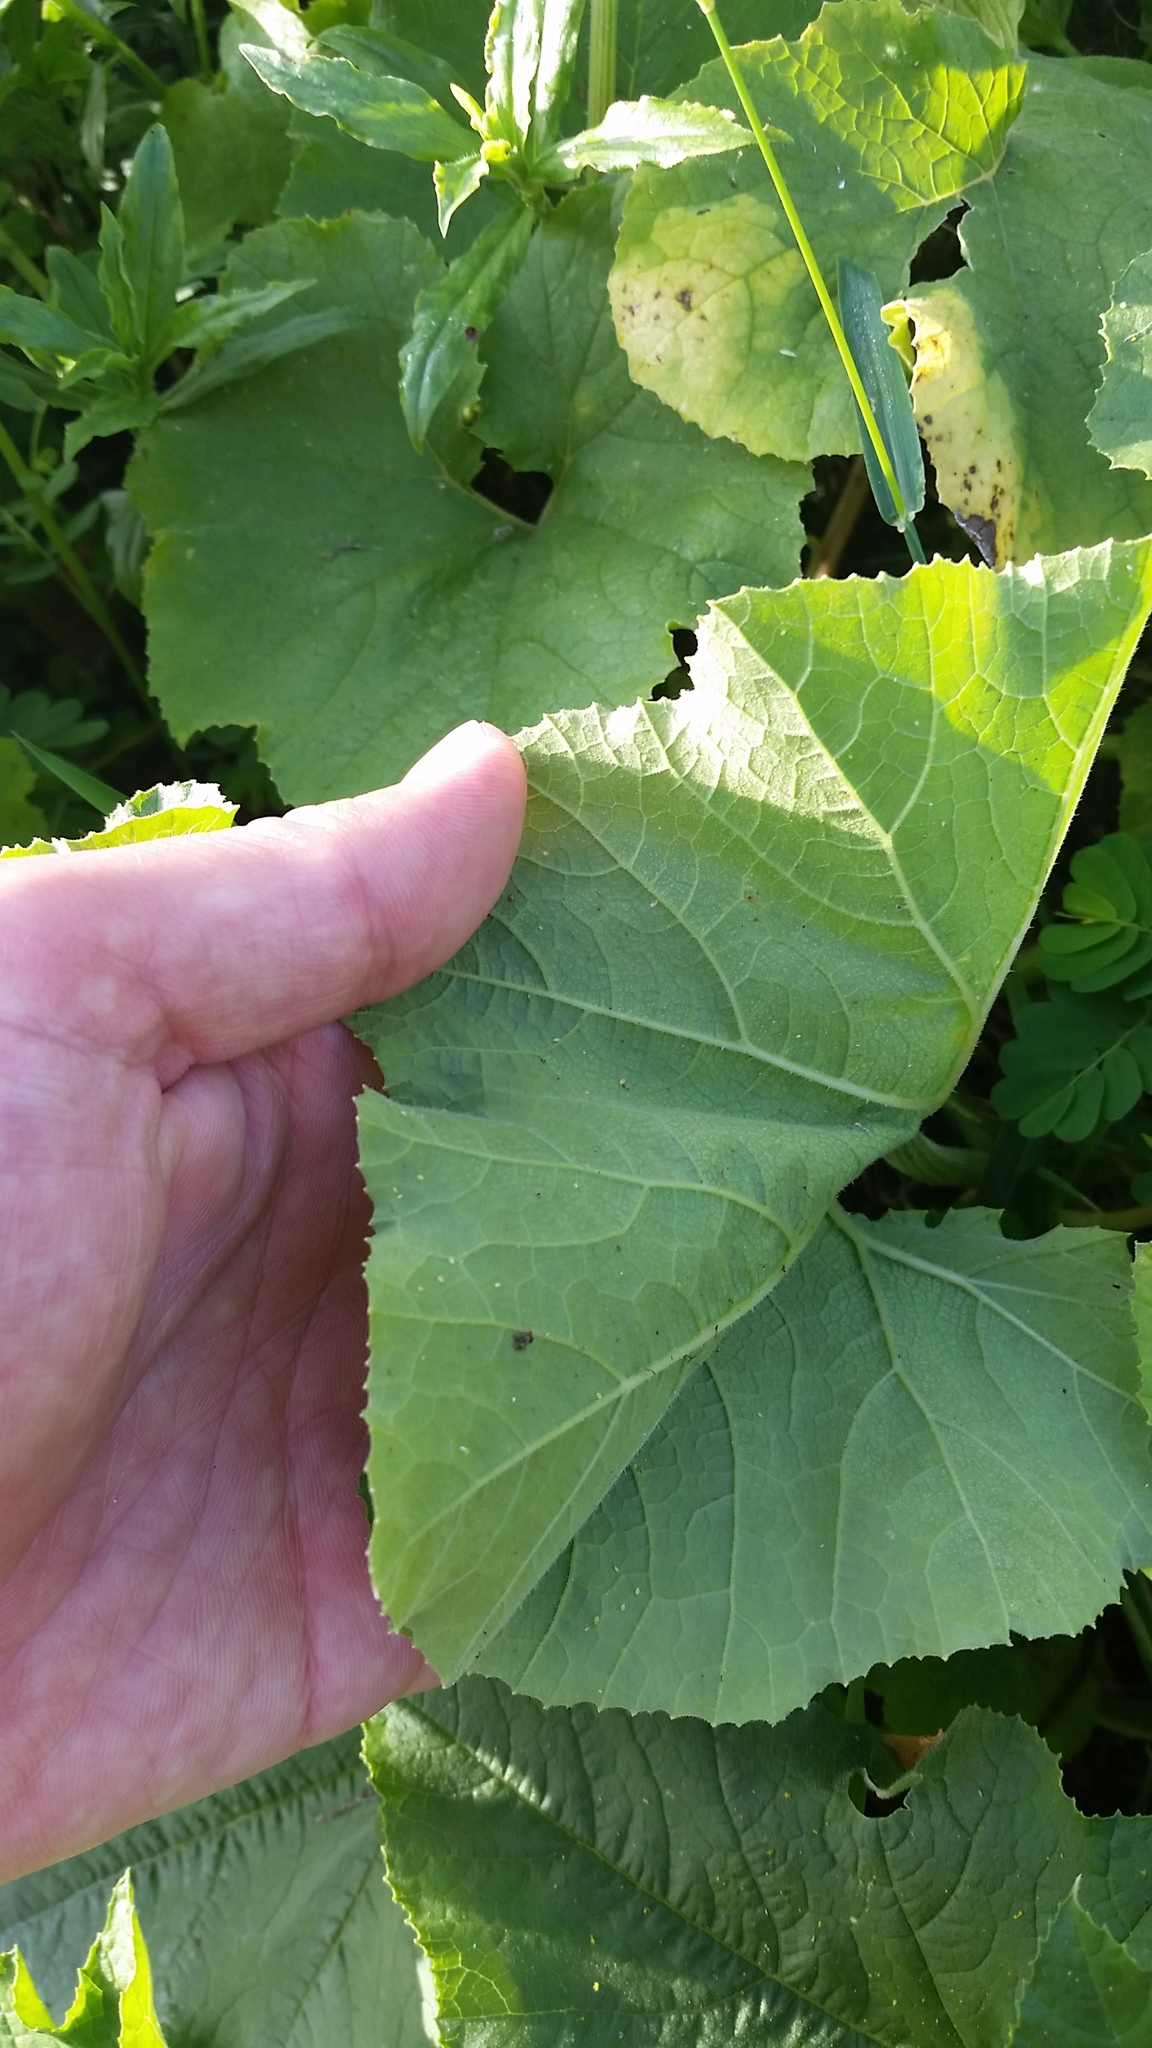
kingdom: Plantae
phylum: Tracheophyta
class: Magnoliopsida
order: Cucurbitales
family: Cucurbitaceae
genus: Cucurbita
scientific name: Cucurbita pepo
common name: Marrow
